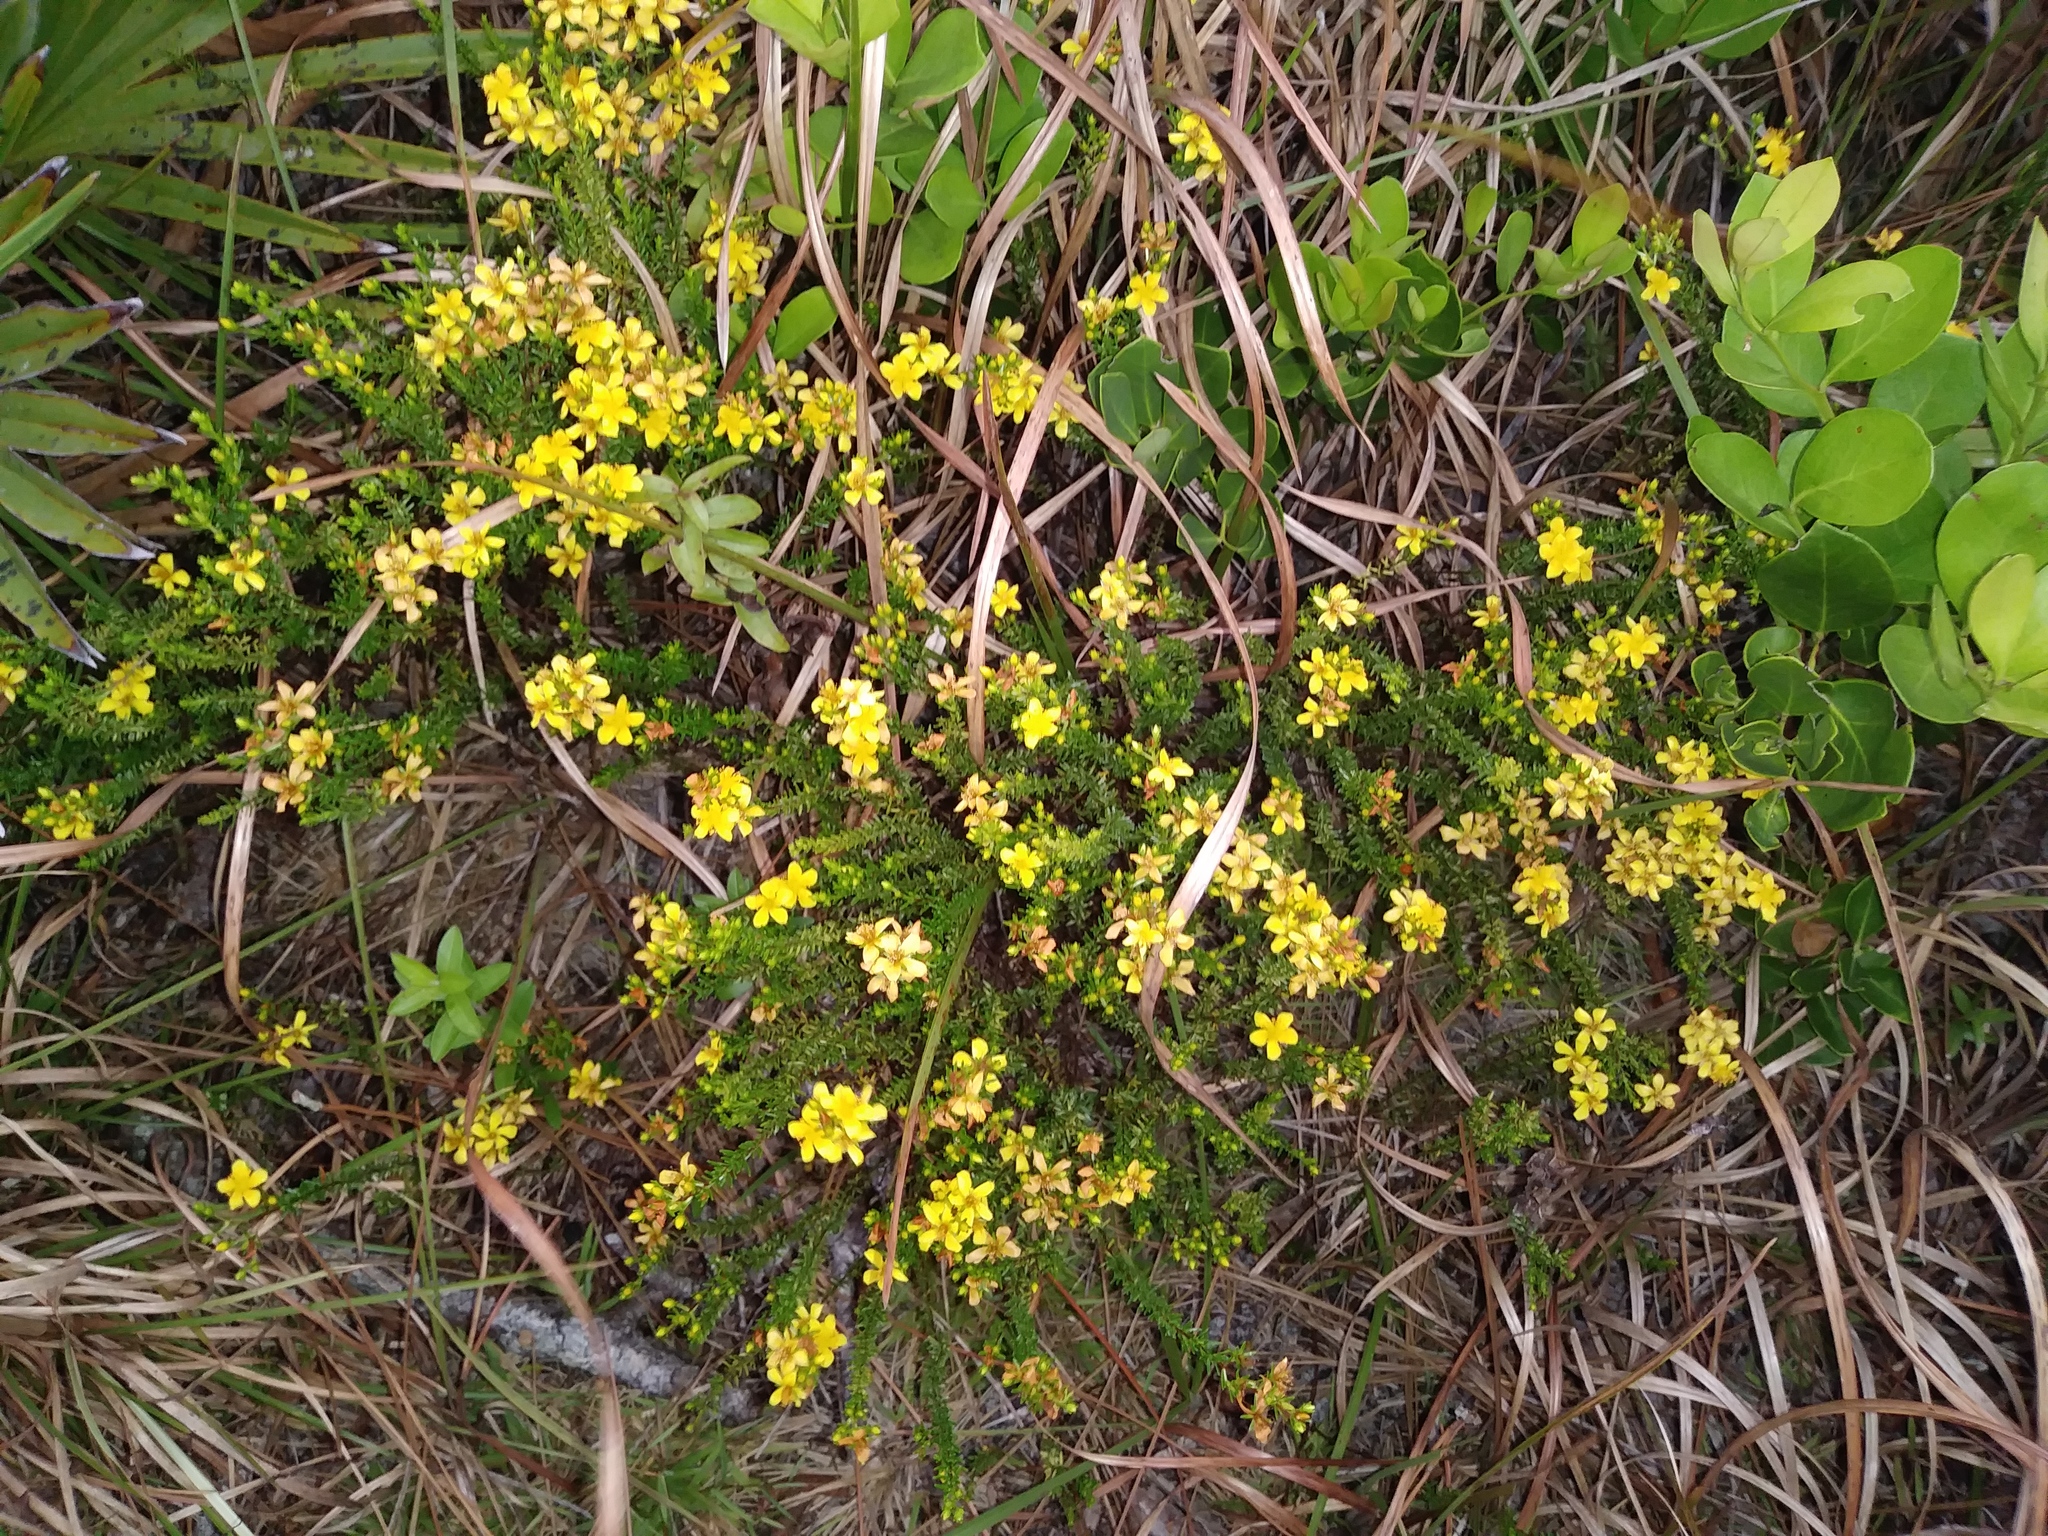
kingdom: Plantae
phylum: Tracheophyta
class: Magnoliopsida
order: Malpighiales
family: Hypericaceae
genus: Hypericum
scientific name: Hypericum tenuifolium
